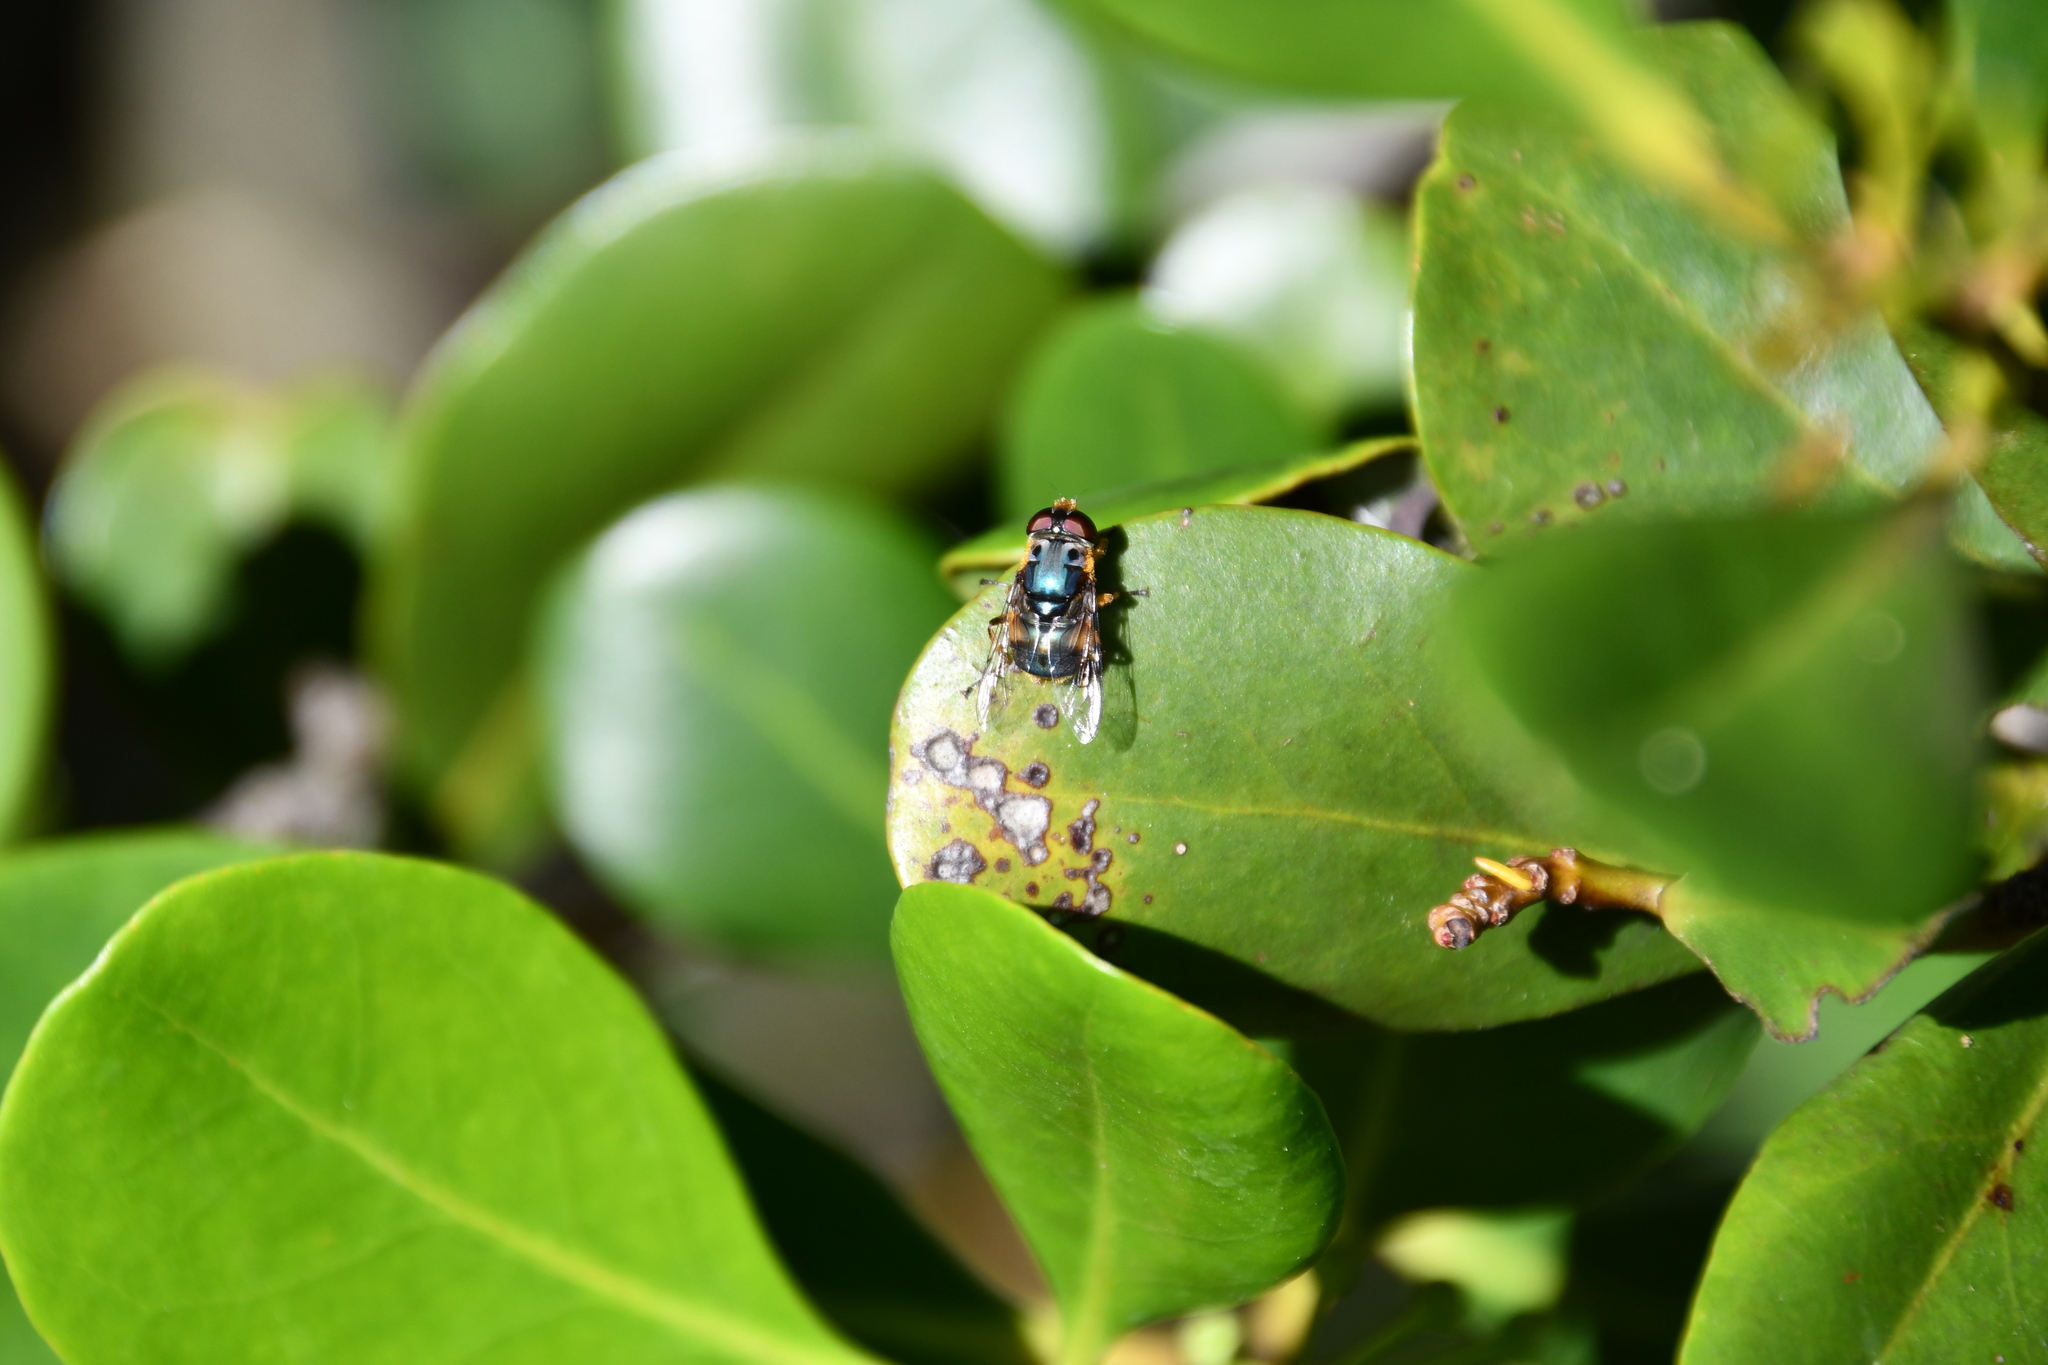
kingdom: Animalia
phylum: Arthropoda
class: Insecta
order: Diptera
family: Syrphidae
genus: Austalis
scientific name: Austalis copiosa
